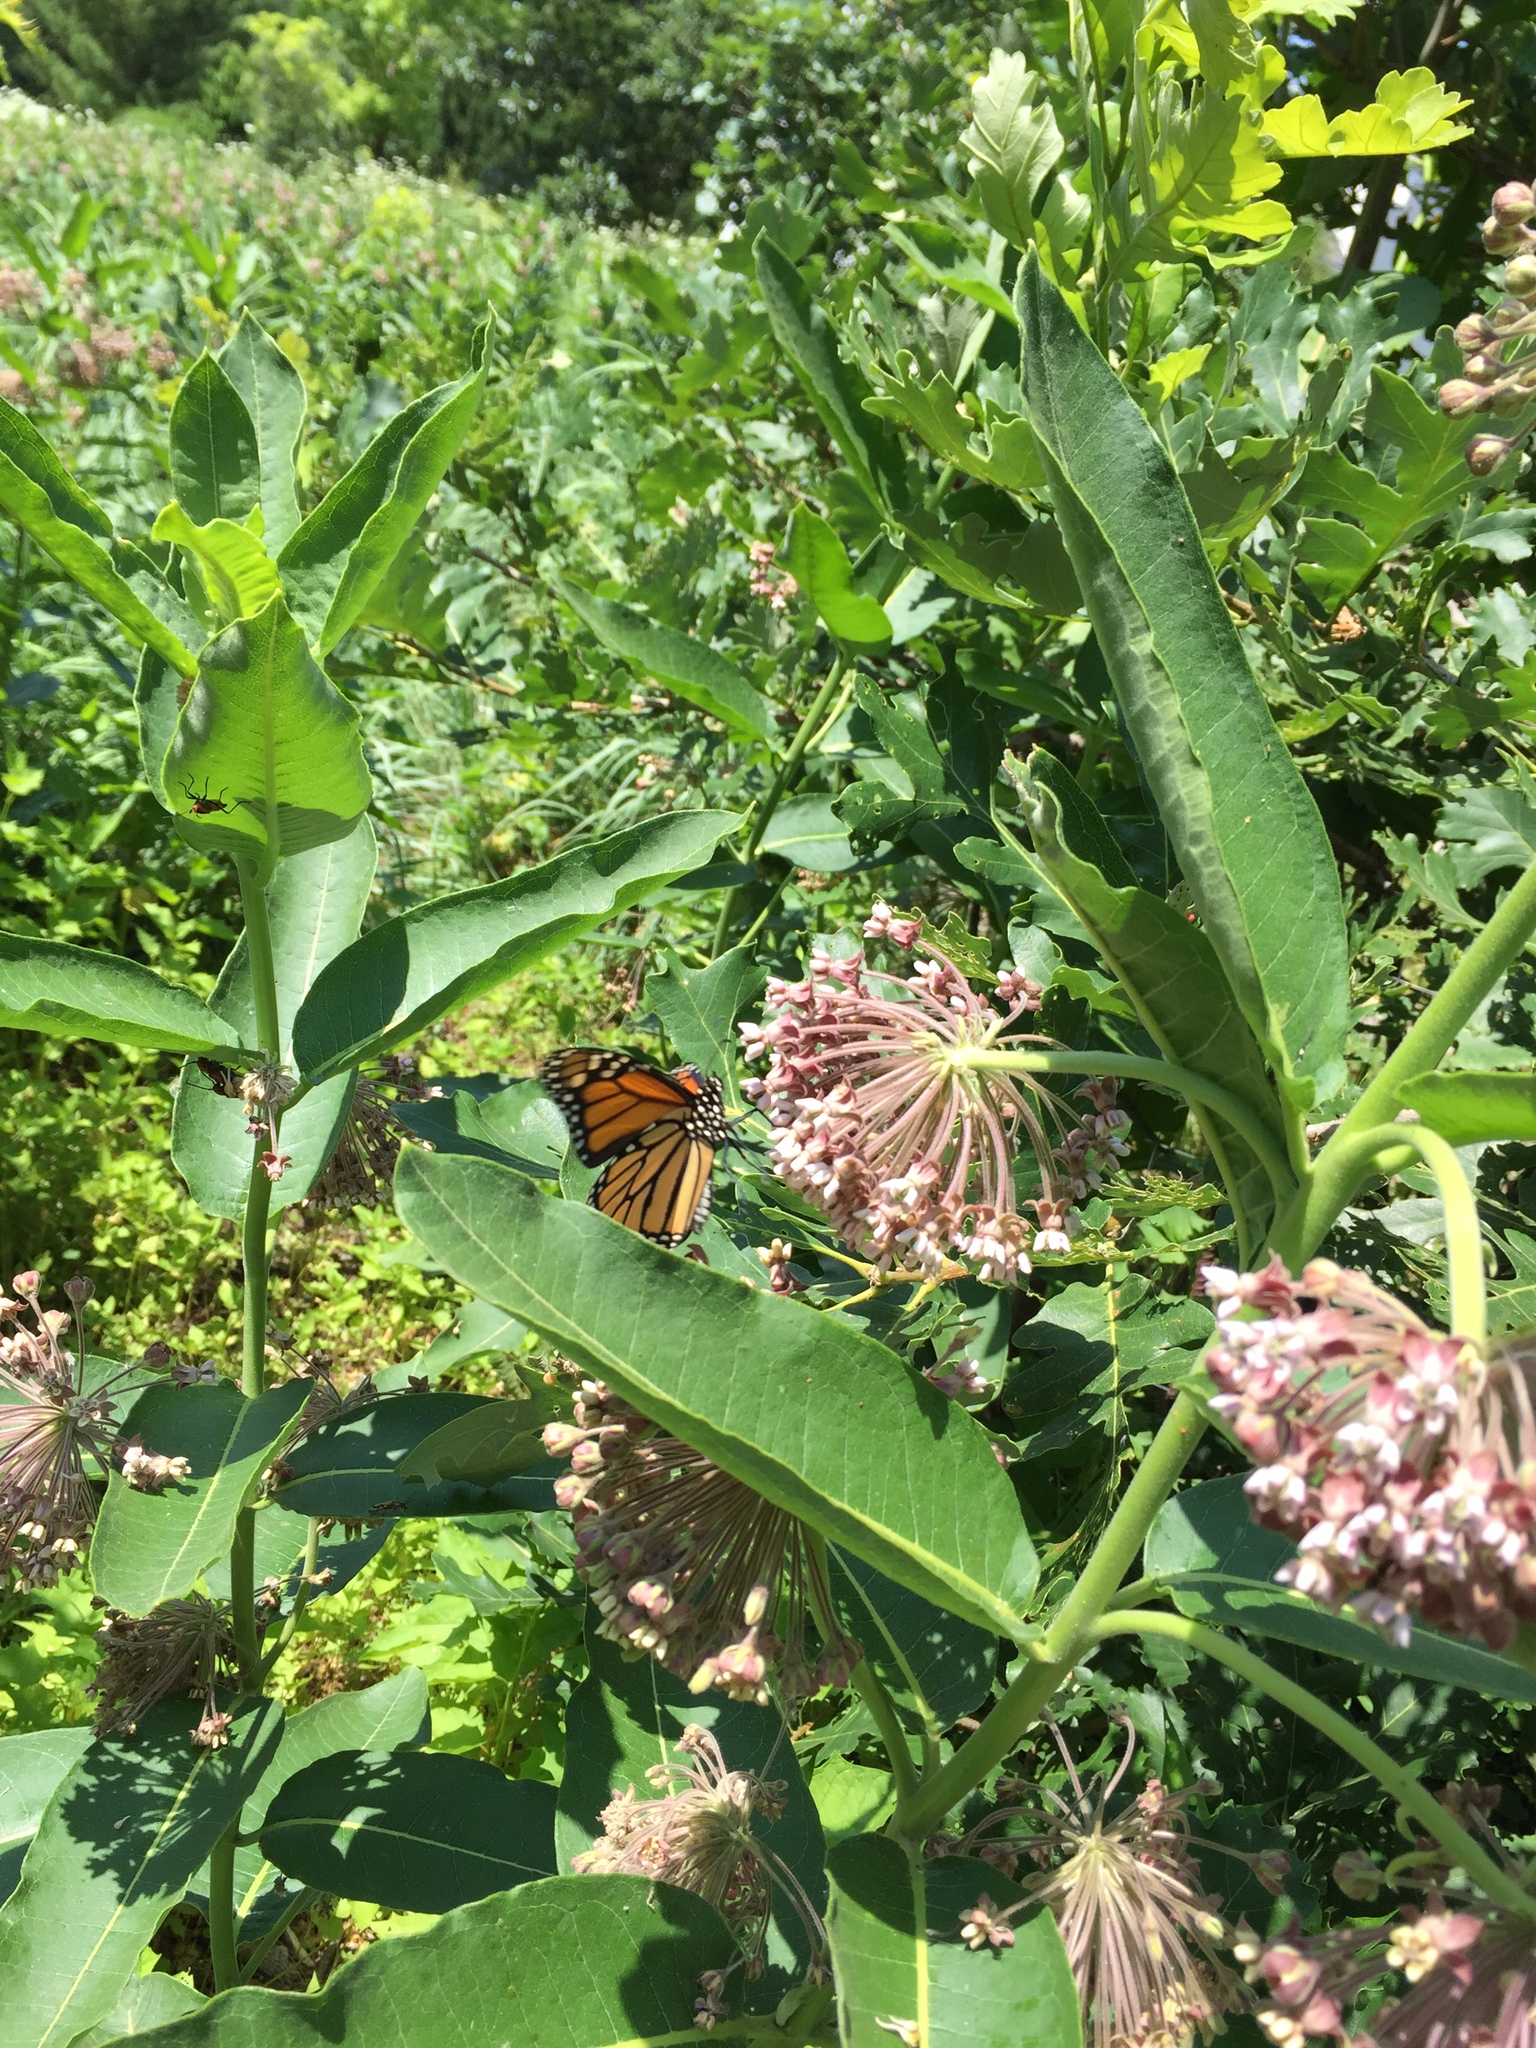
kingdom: Animalia
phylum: Arthropoda
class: Insecta
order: Lepidoptera
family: Nymphalidae
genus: Danaus
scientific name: Danaus plexippus
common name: Monarch
